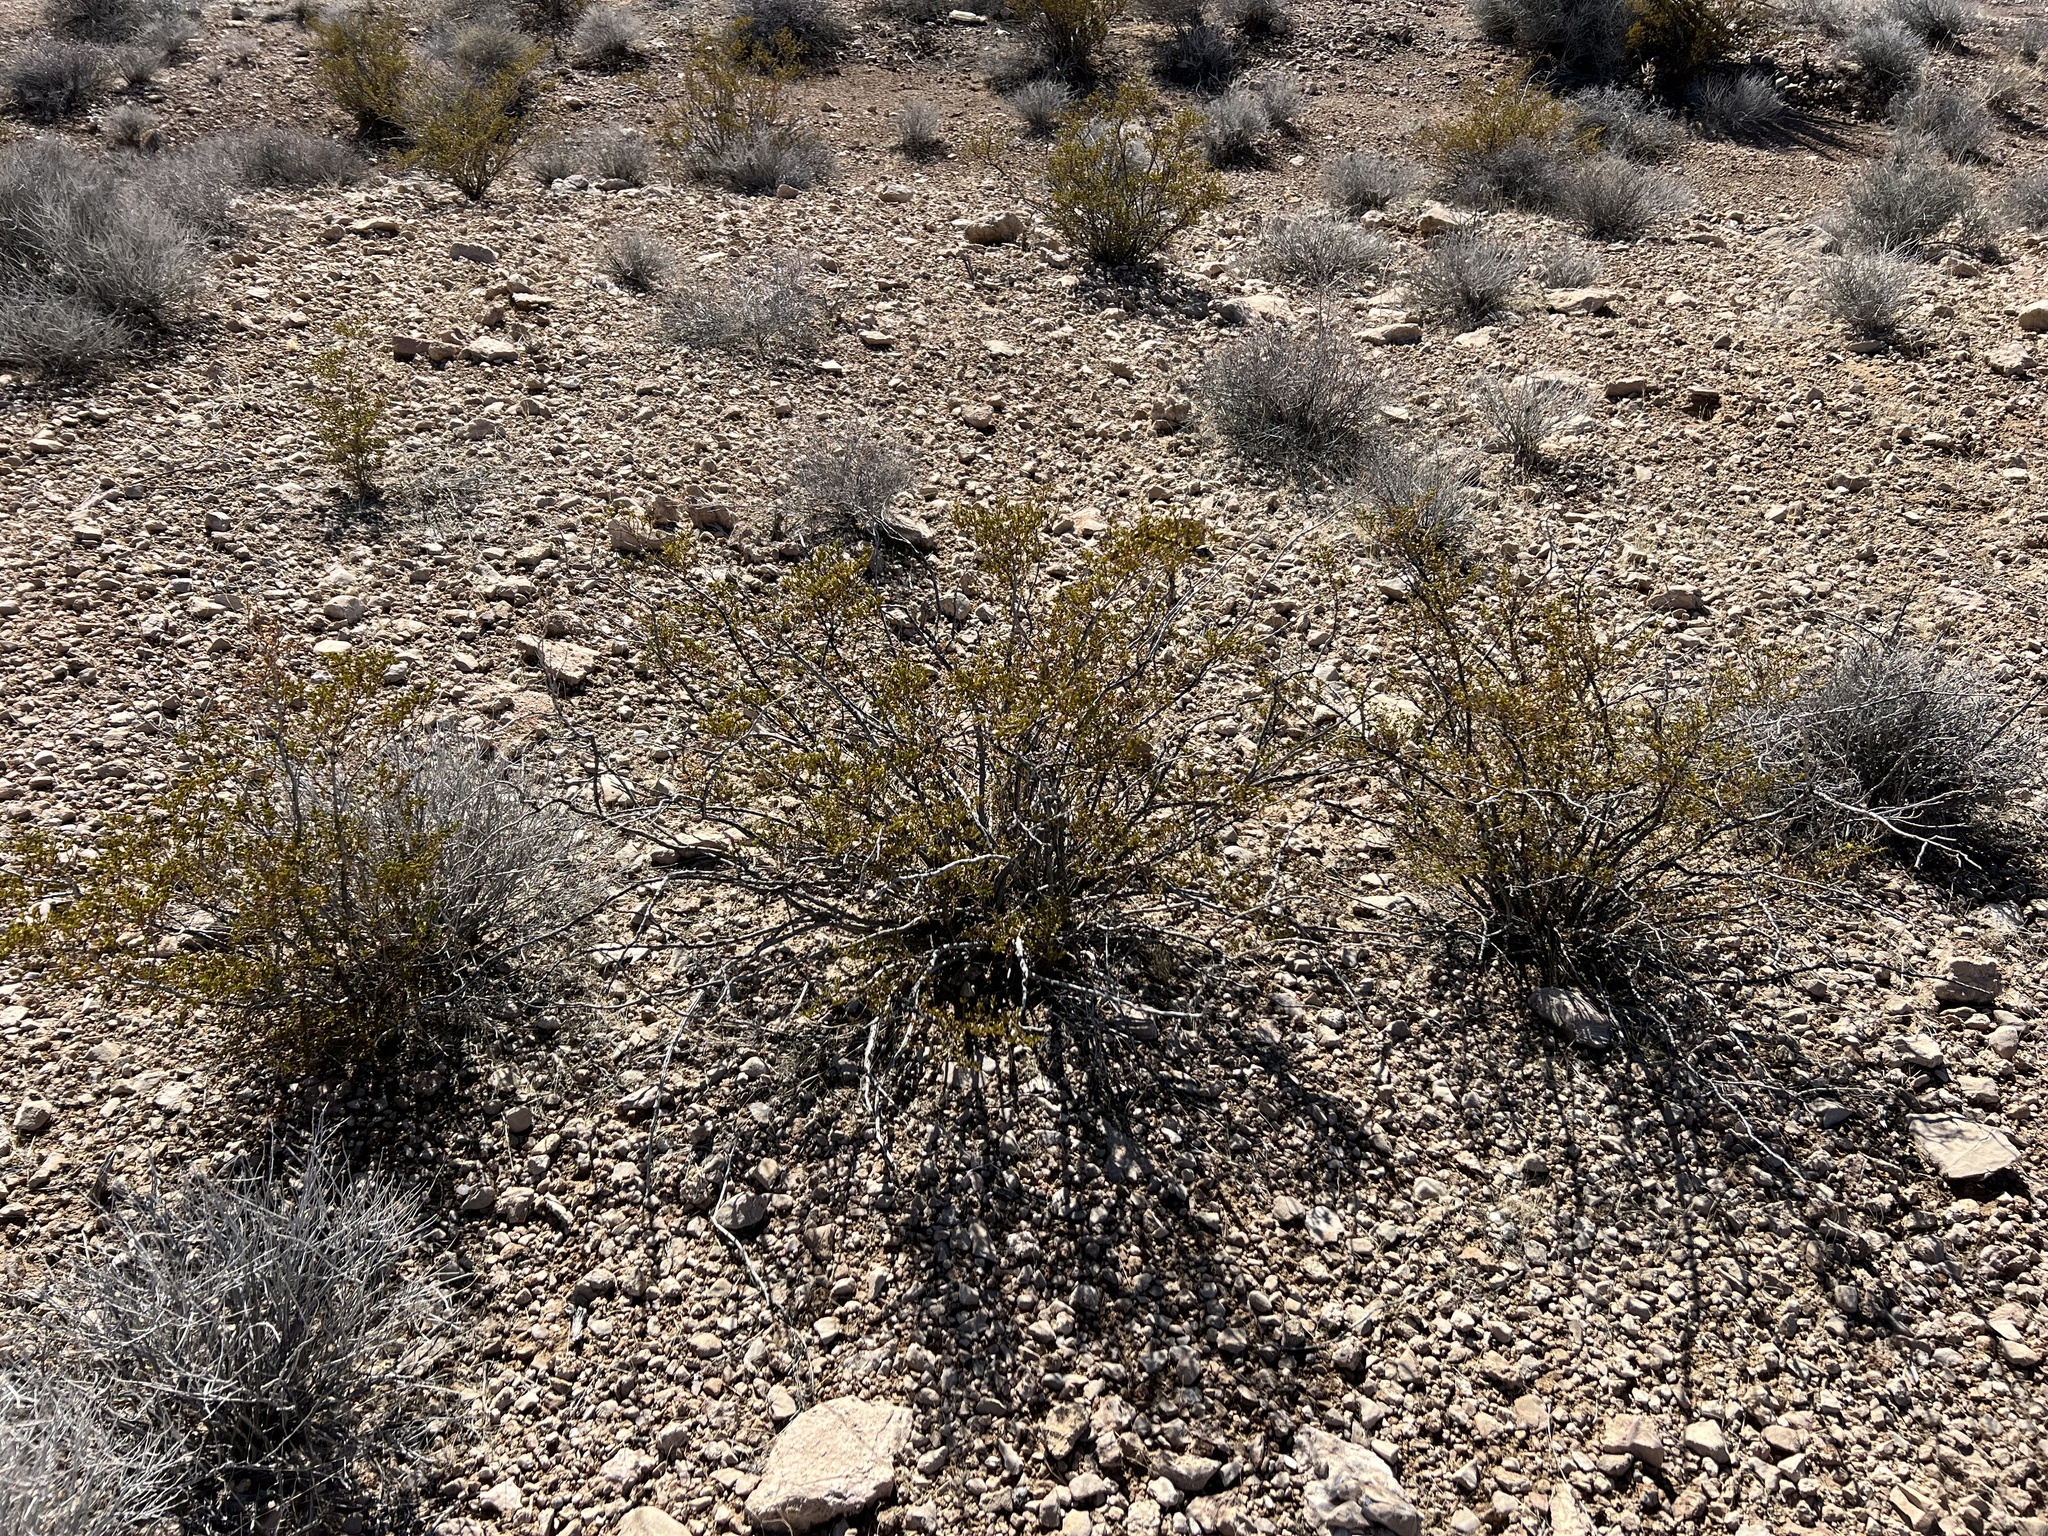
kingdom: Plantae
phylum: Tracheophyta
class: Magnoliopsida
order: Zygophyllales
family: Zygophyllaceae
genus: Larrea
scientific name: Larrea tridentata
